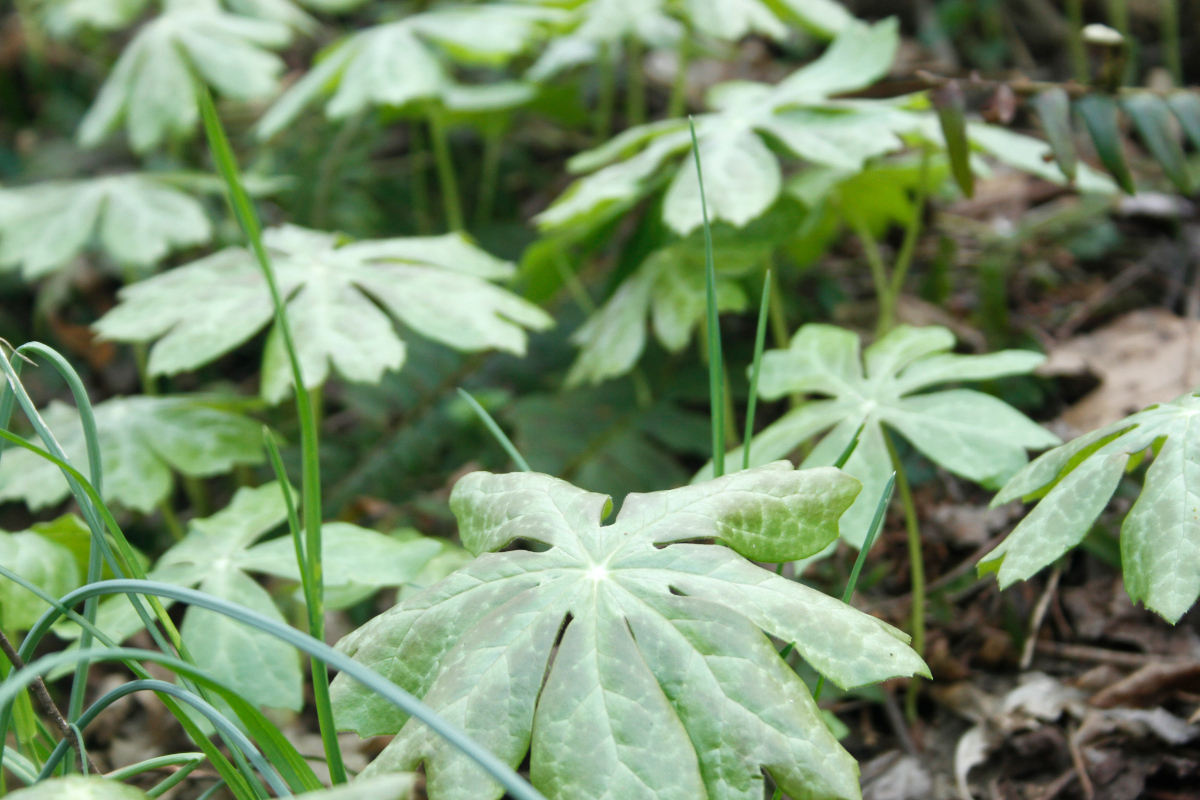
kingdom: Plantae
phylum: Tracheophyta
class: Magnoliopsida
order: Ranunculales
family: Berberidaceae
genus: Podophyllum
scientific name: Podophyllum peltatum
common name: Wild mandrake
